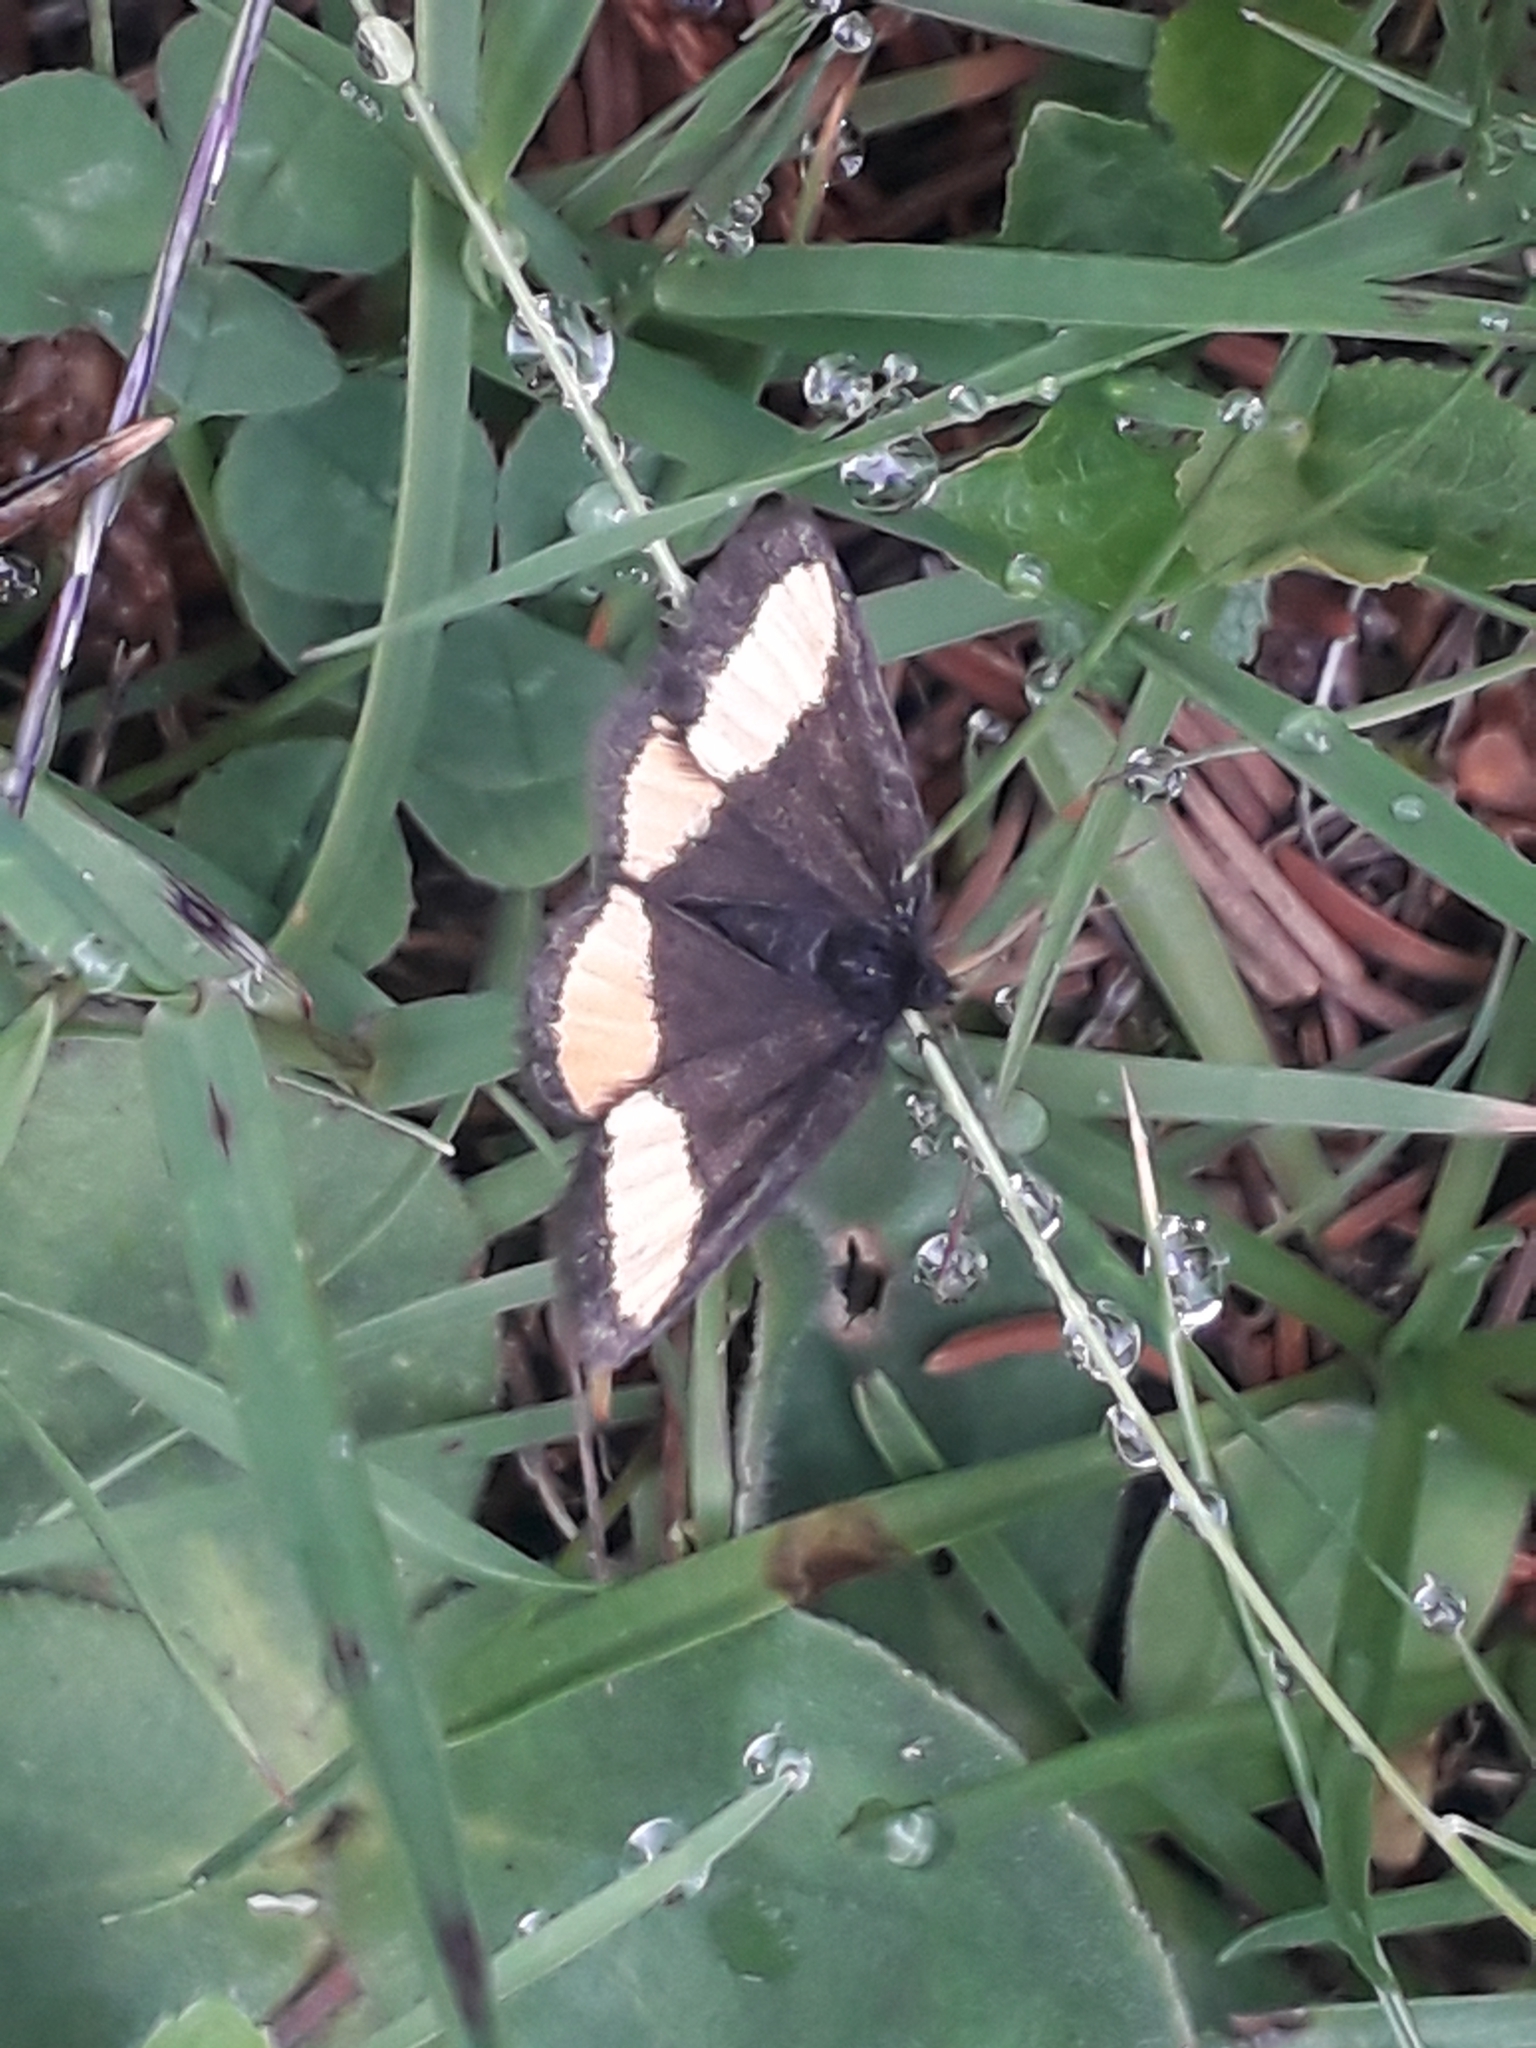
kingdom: Animalia
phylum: Arthropoda
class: Insecta
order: Lepidoptera
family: Geometridae
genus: Psodos
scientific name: Psodos quadrifaria
